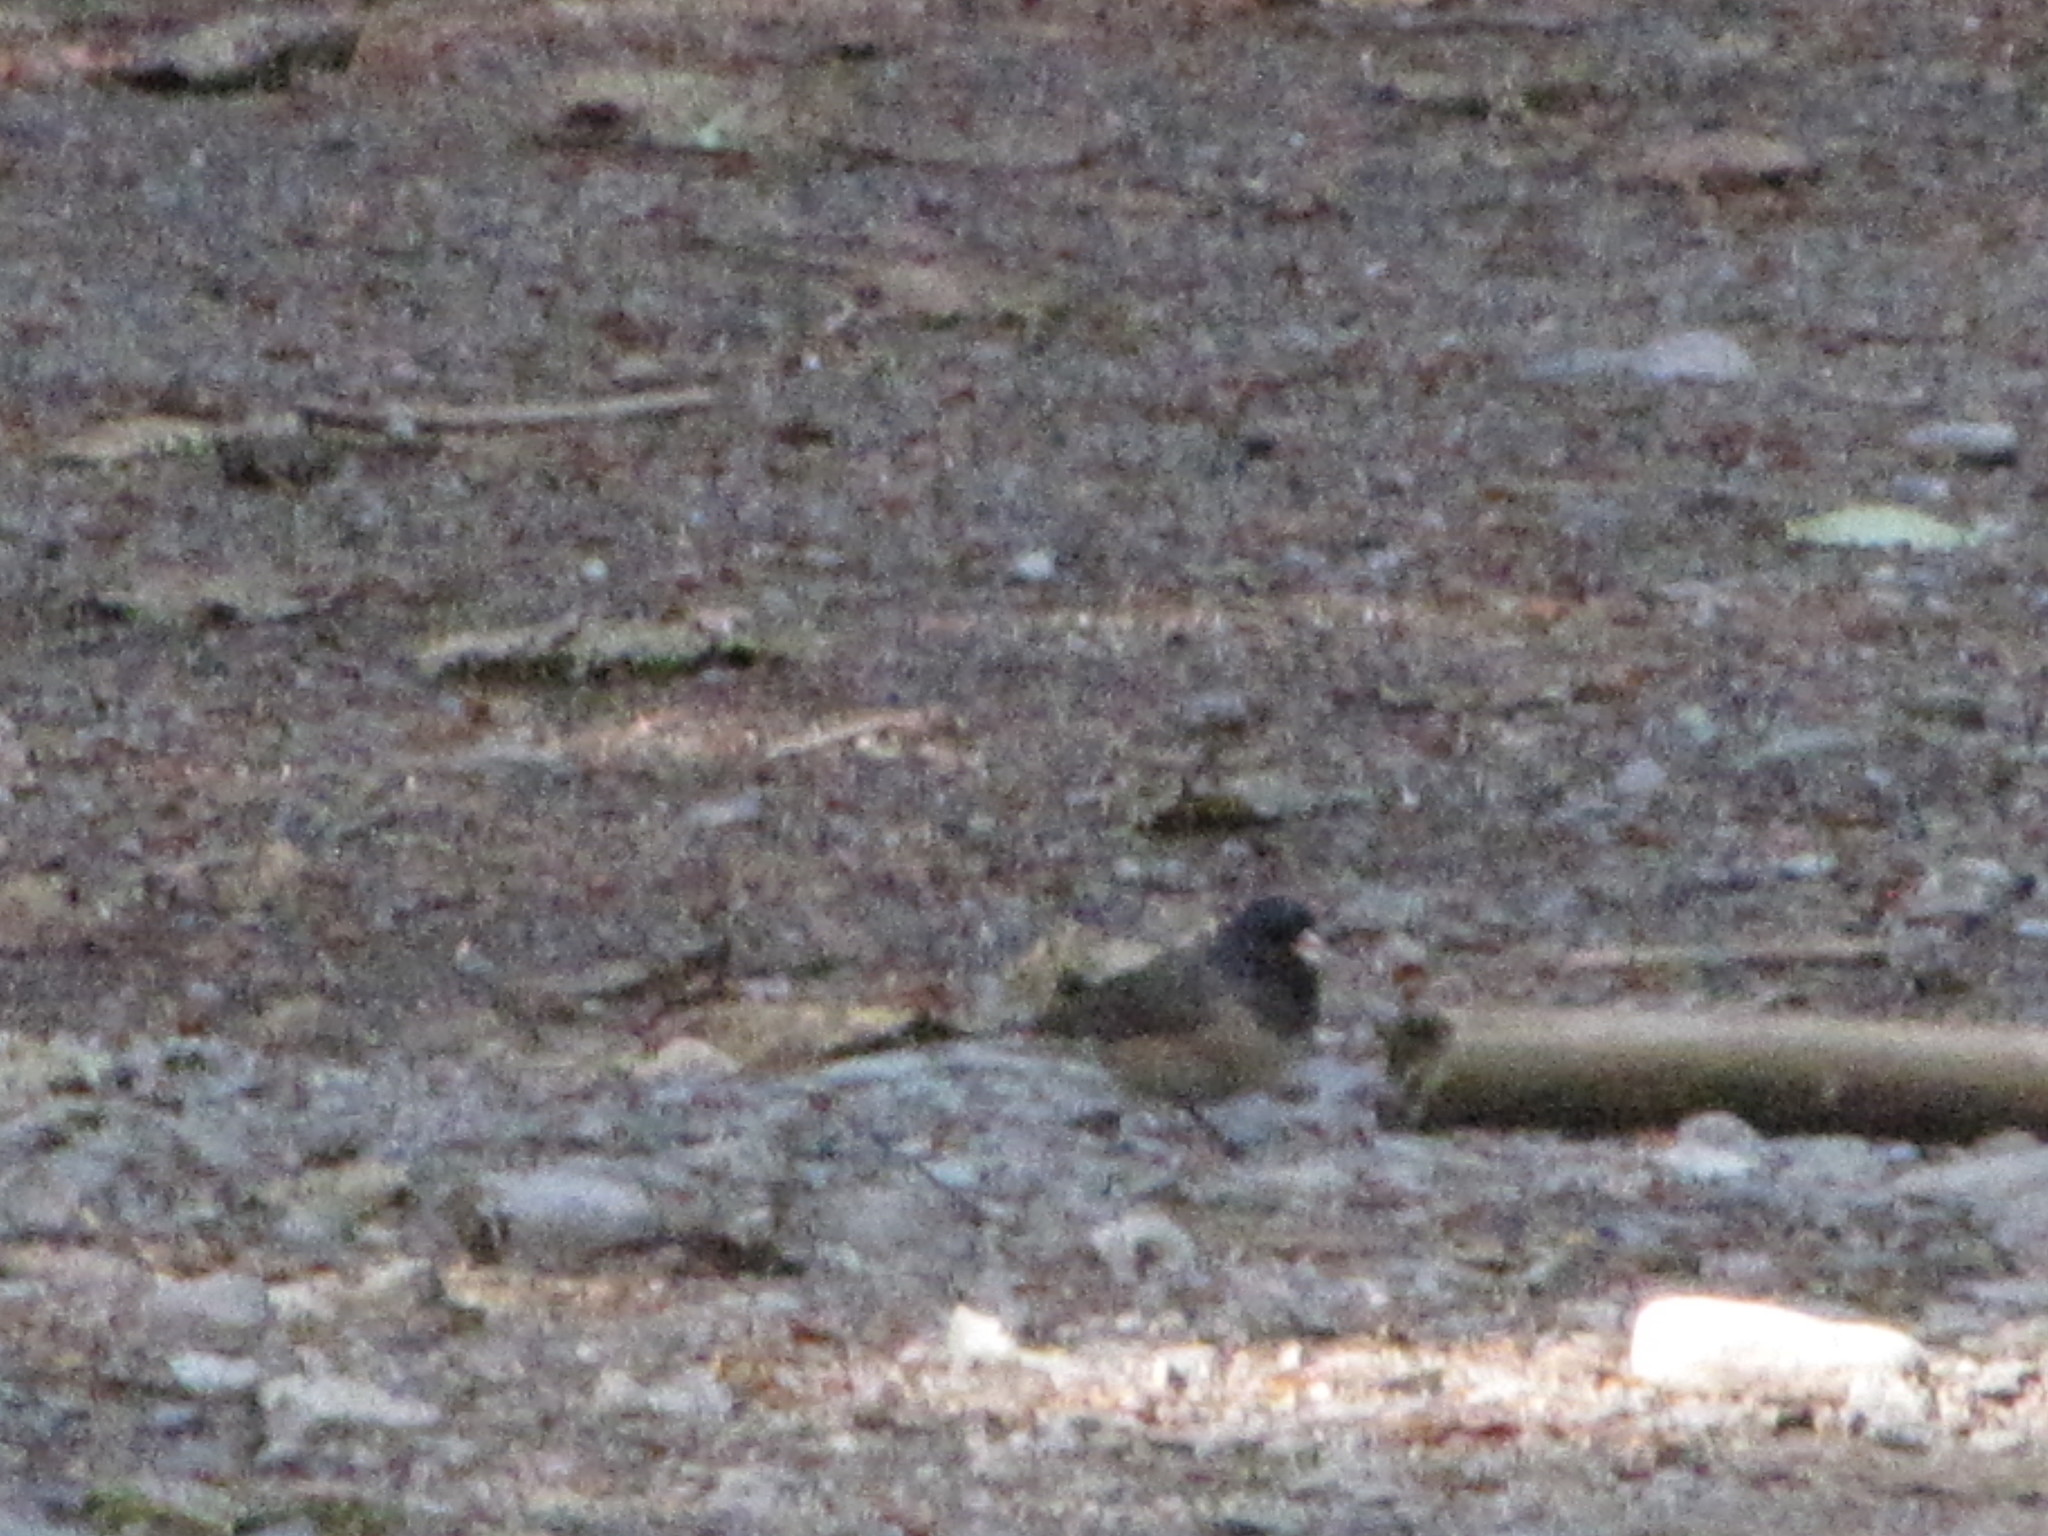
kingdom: Animalia
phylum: Chordata
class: Aves
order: Passeriformes
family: Passerellidae
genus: Junco
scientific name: Junco hyemalis
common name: Dark-eyed junco
